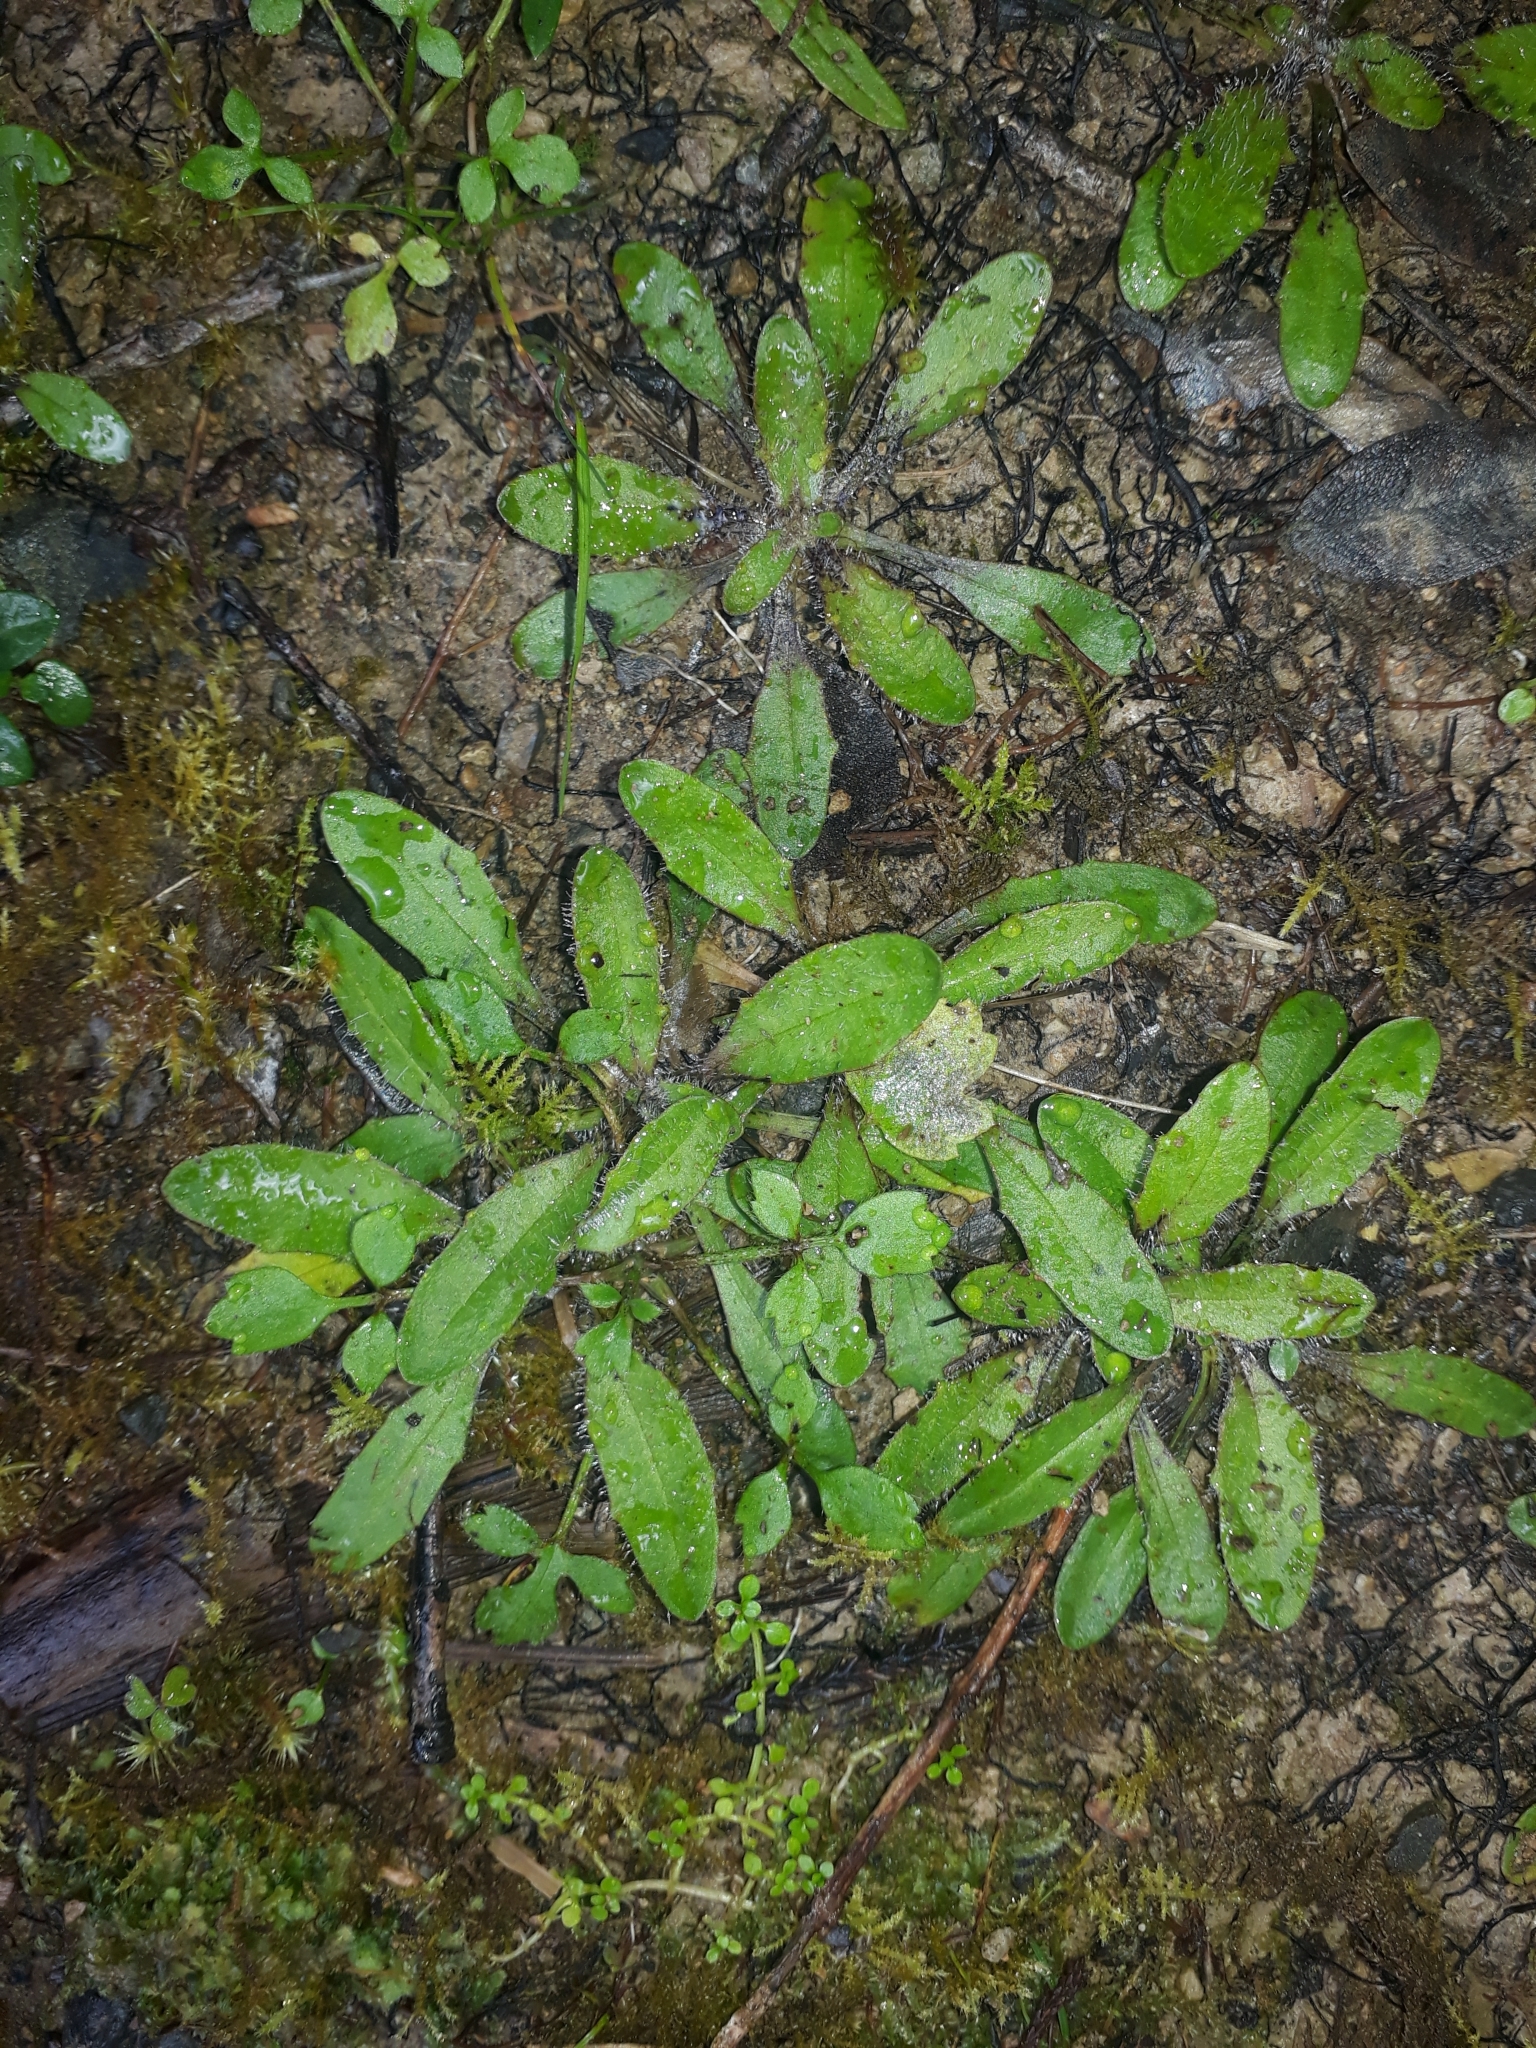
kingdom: Plantae
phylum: Tracheophyta
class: Magnoliopsida
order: Lamiales
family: Plantaginaceae
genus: Plantago
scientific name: Plantago raoulii
